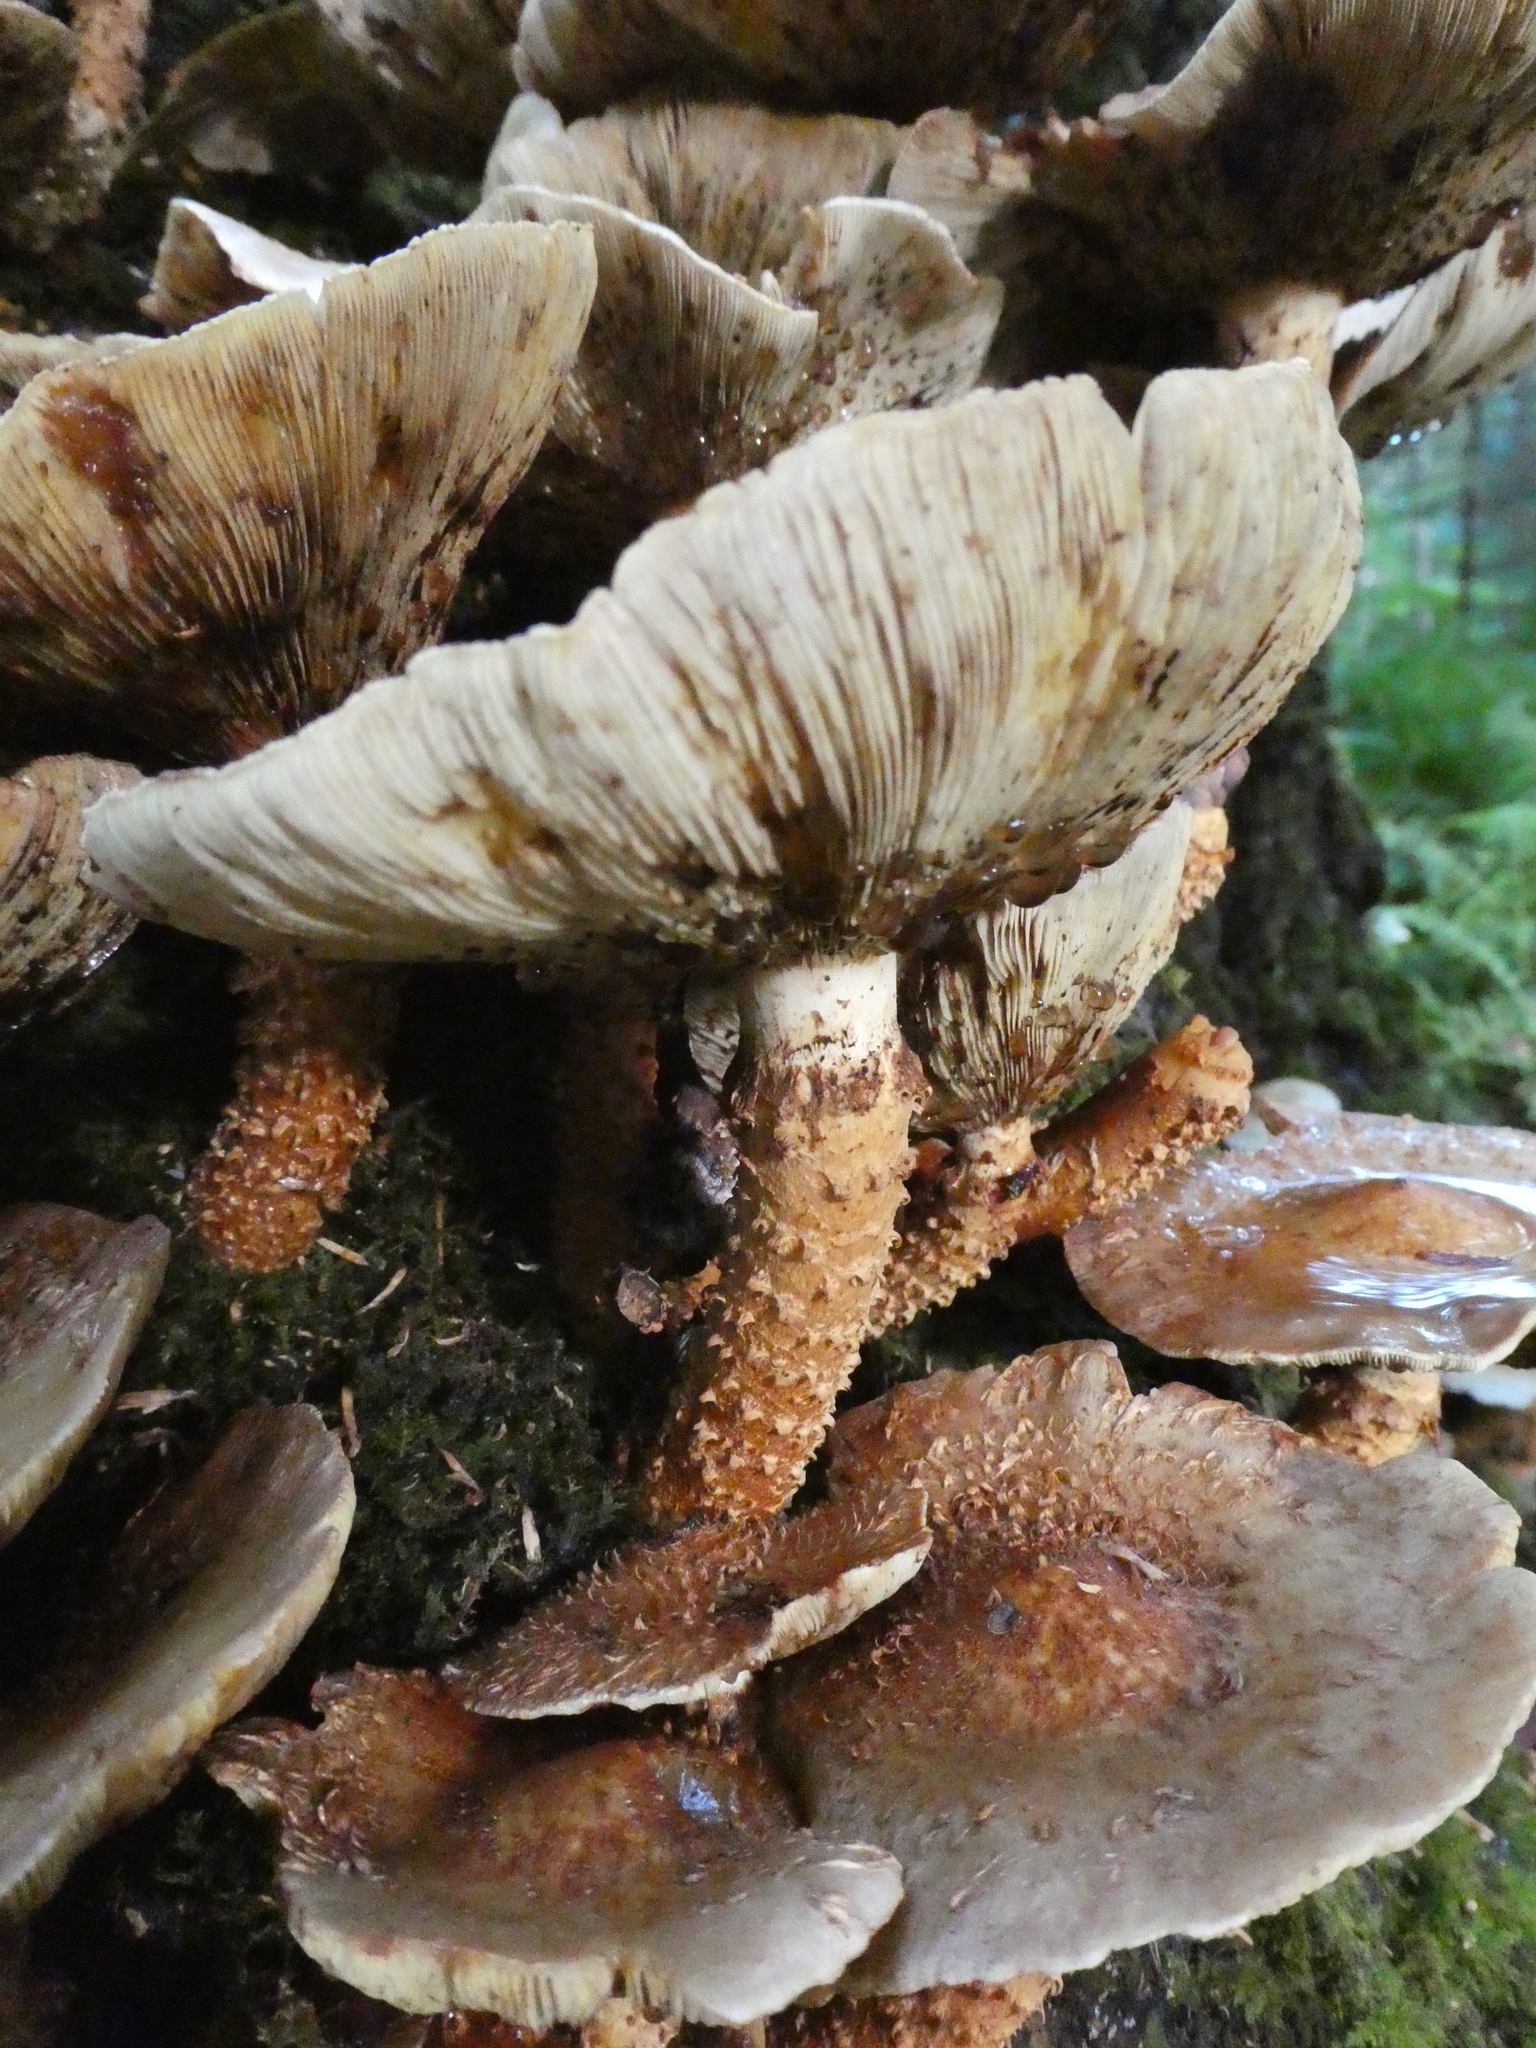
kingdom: Fungi
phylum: Basidiomycota
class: Agaricomycetes
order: Agaricales
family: Agaricaceae
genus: Leucopholiota
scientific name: Leucopholiota decorosa
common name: Decorated pholiota
